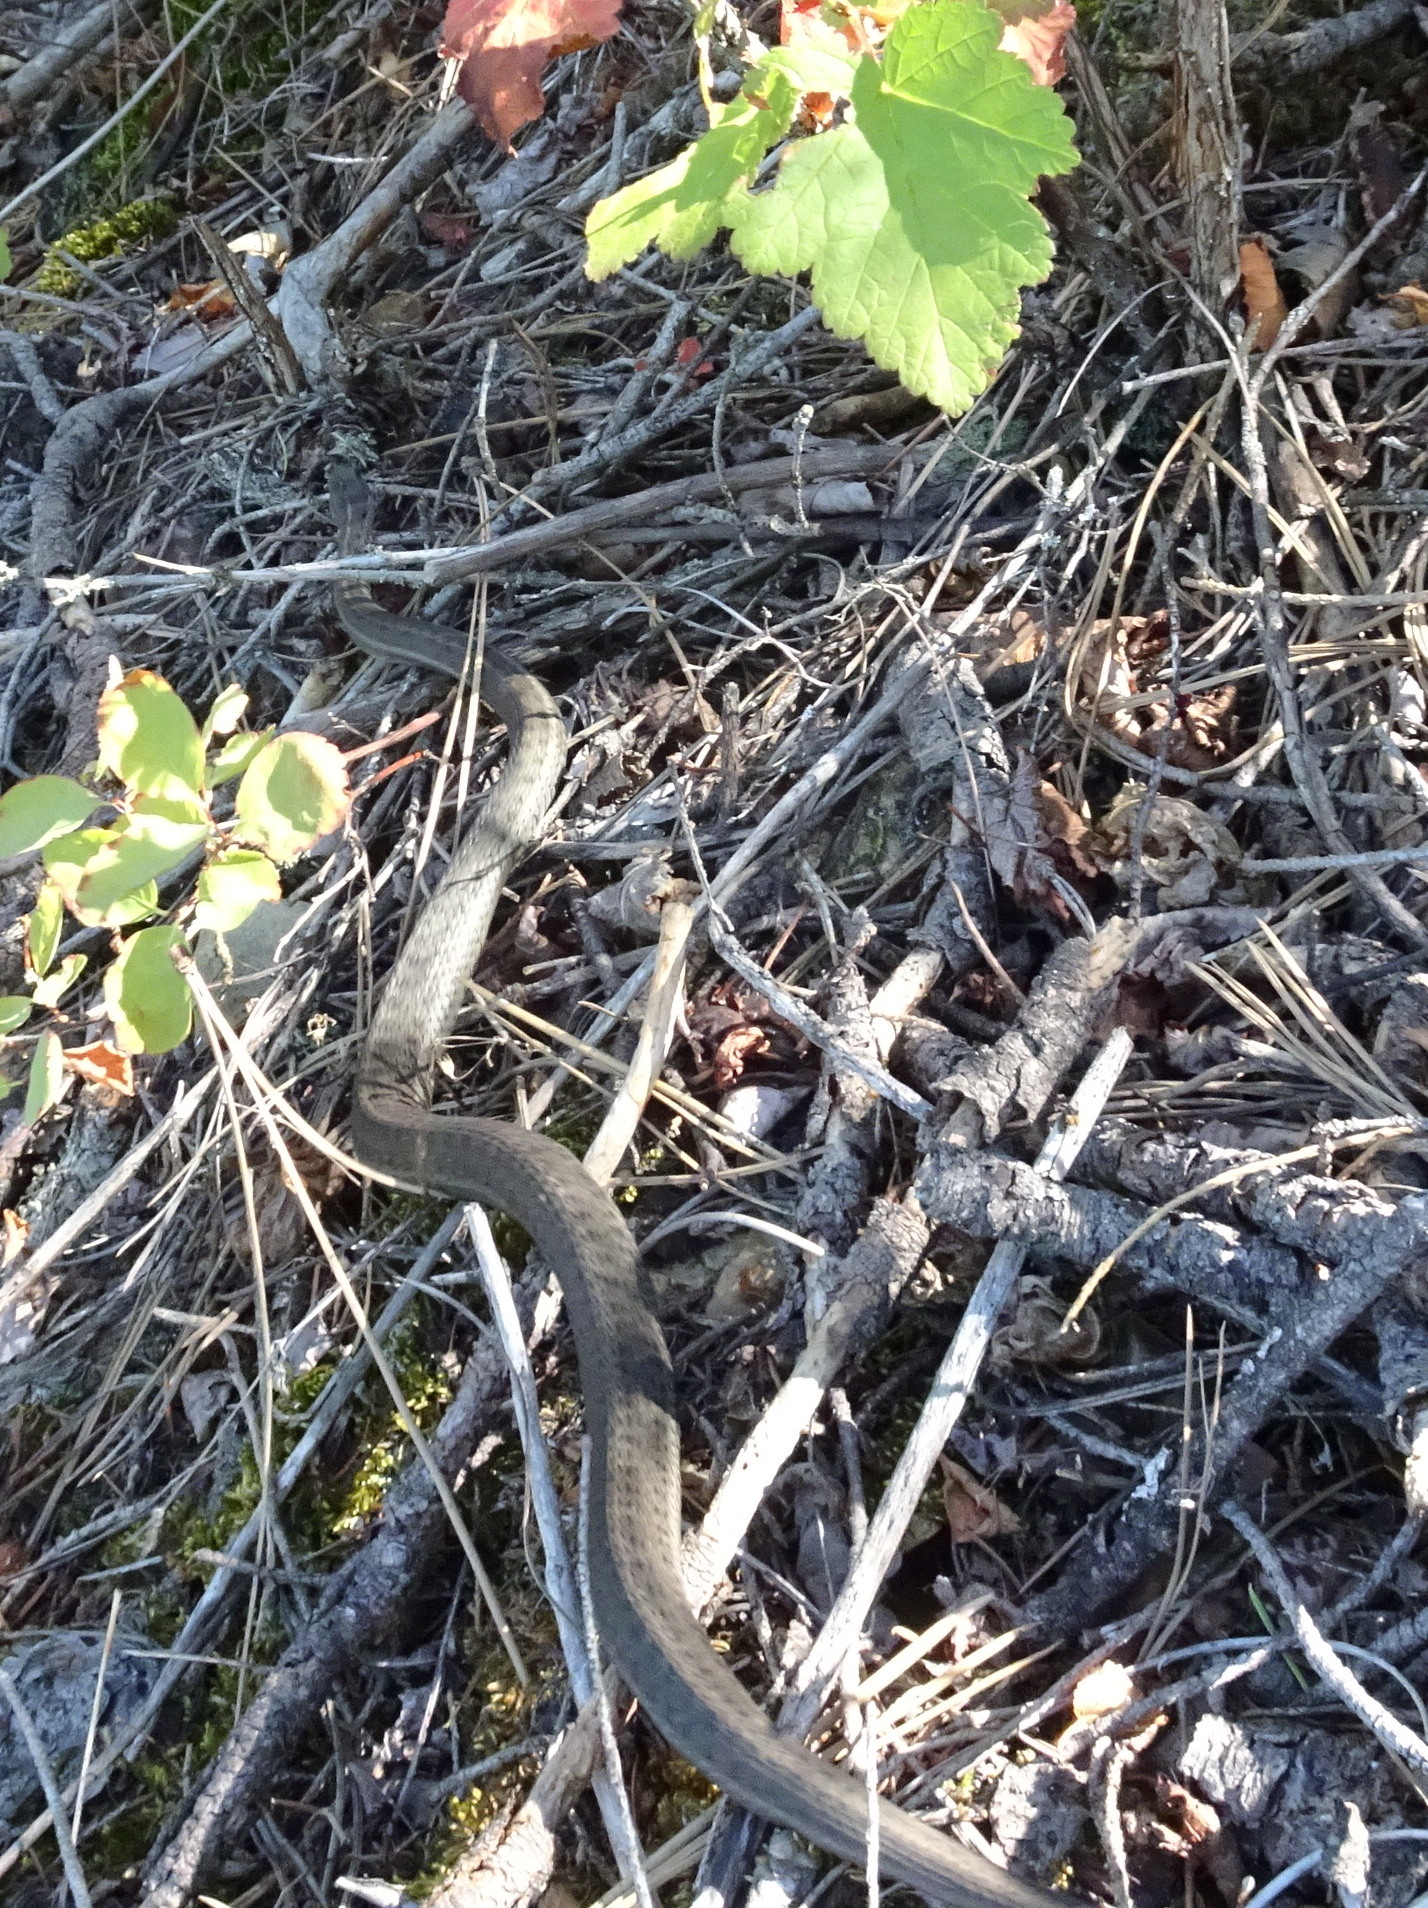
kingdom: Animalia
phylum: Chordata
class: Squamata
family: Colubridae
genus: Thamnophis
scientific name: Thamnophis elegans
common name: Western terrestrial garter snake
